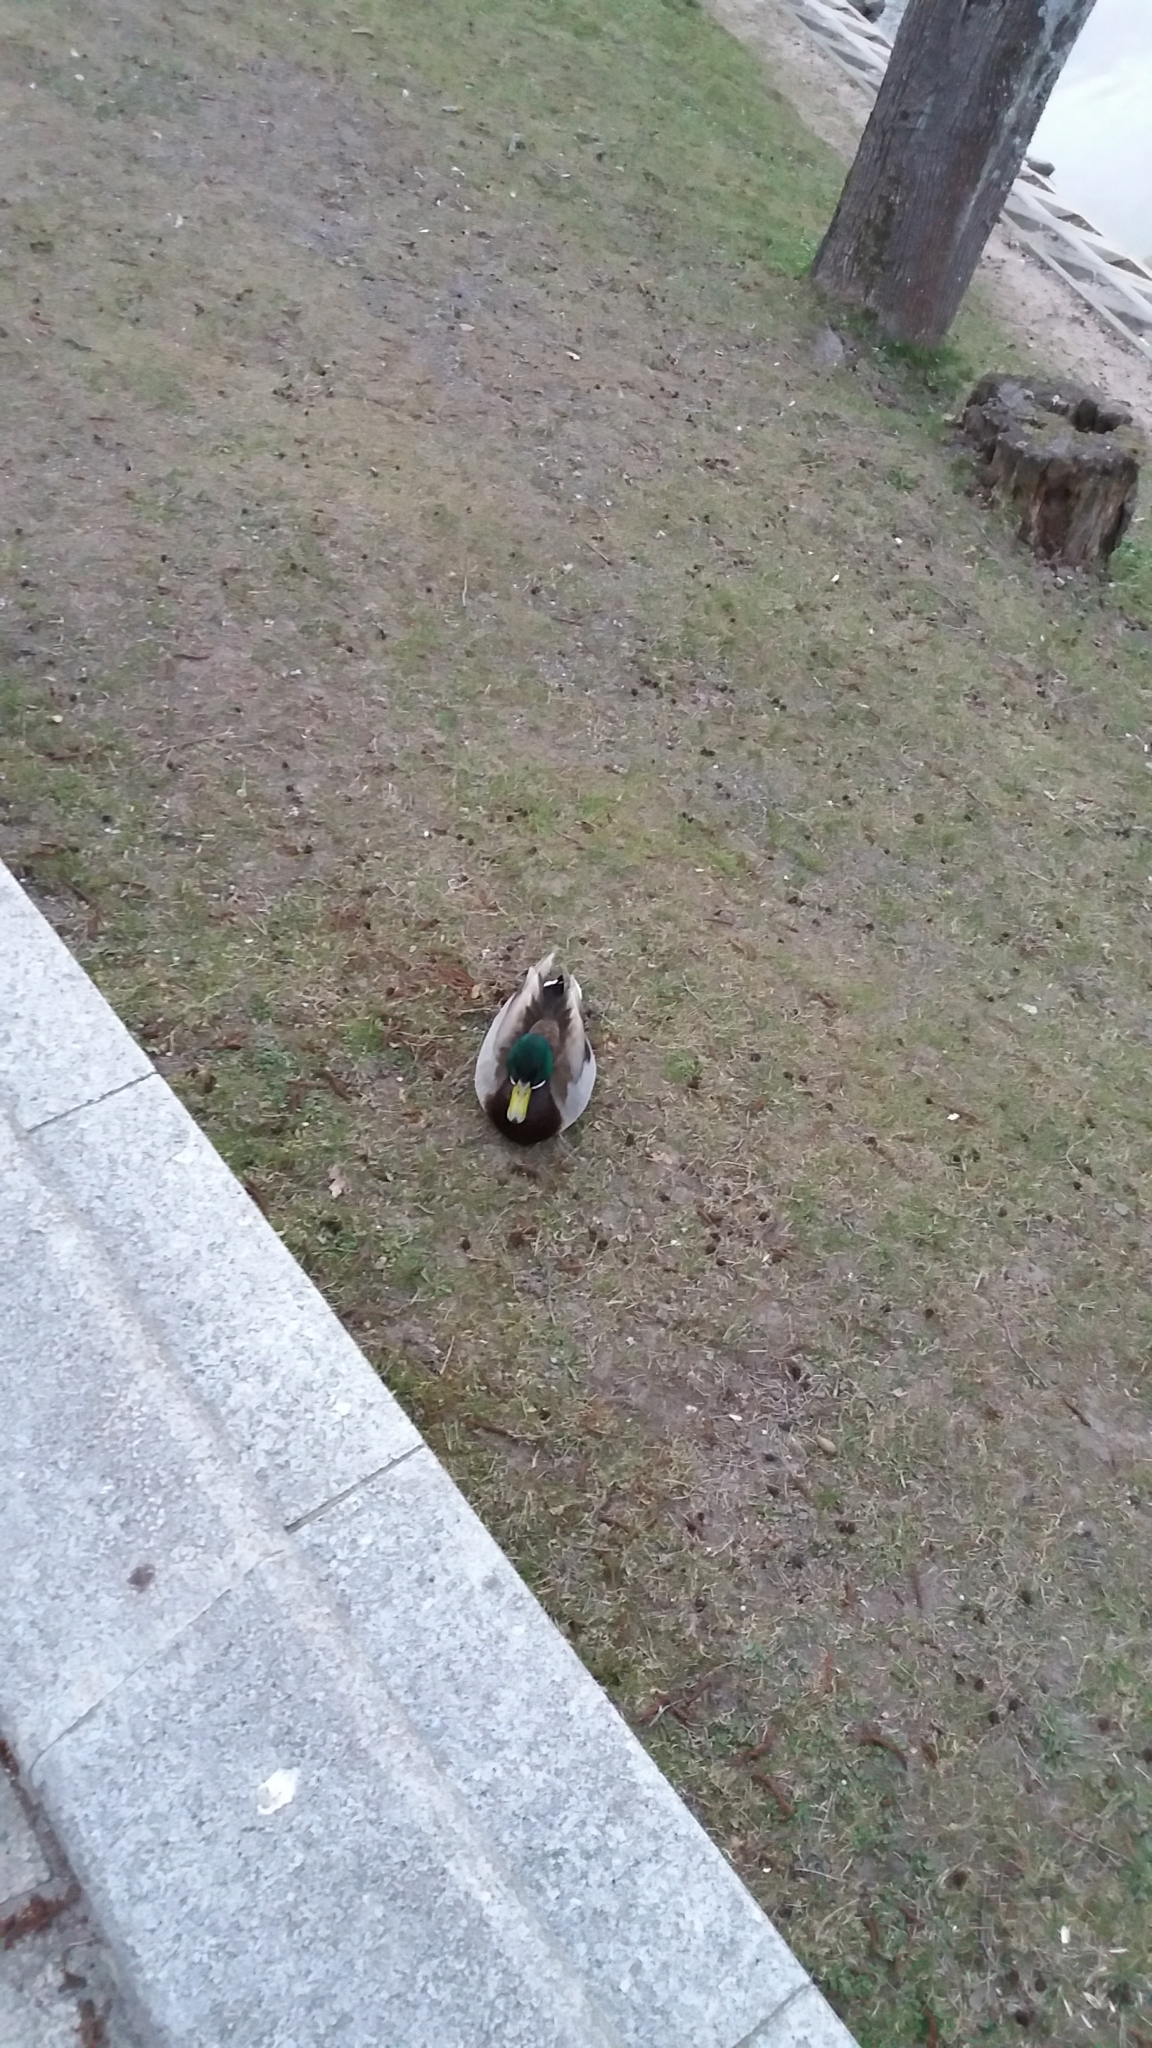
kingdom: Animalia
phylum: Chordata
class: Aves
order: Anseriformes
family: Anatidae
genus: Anas
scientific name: Anas platyrhynchos
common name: Mallard
